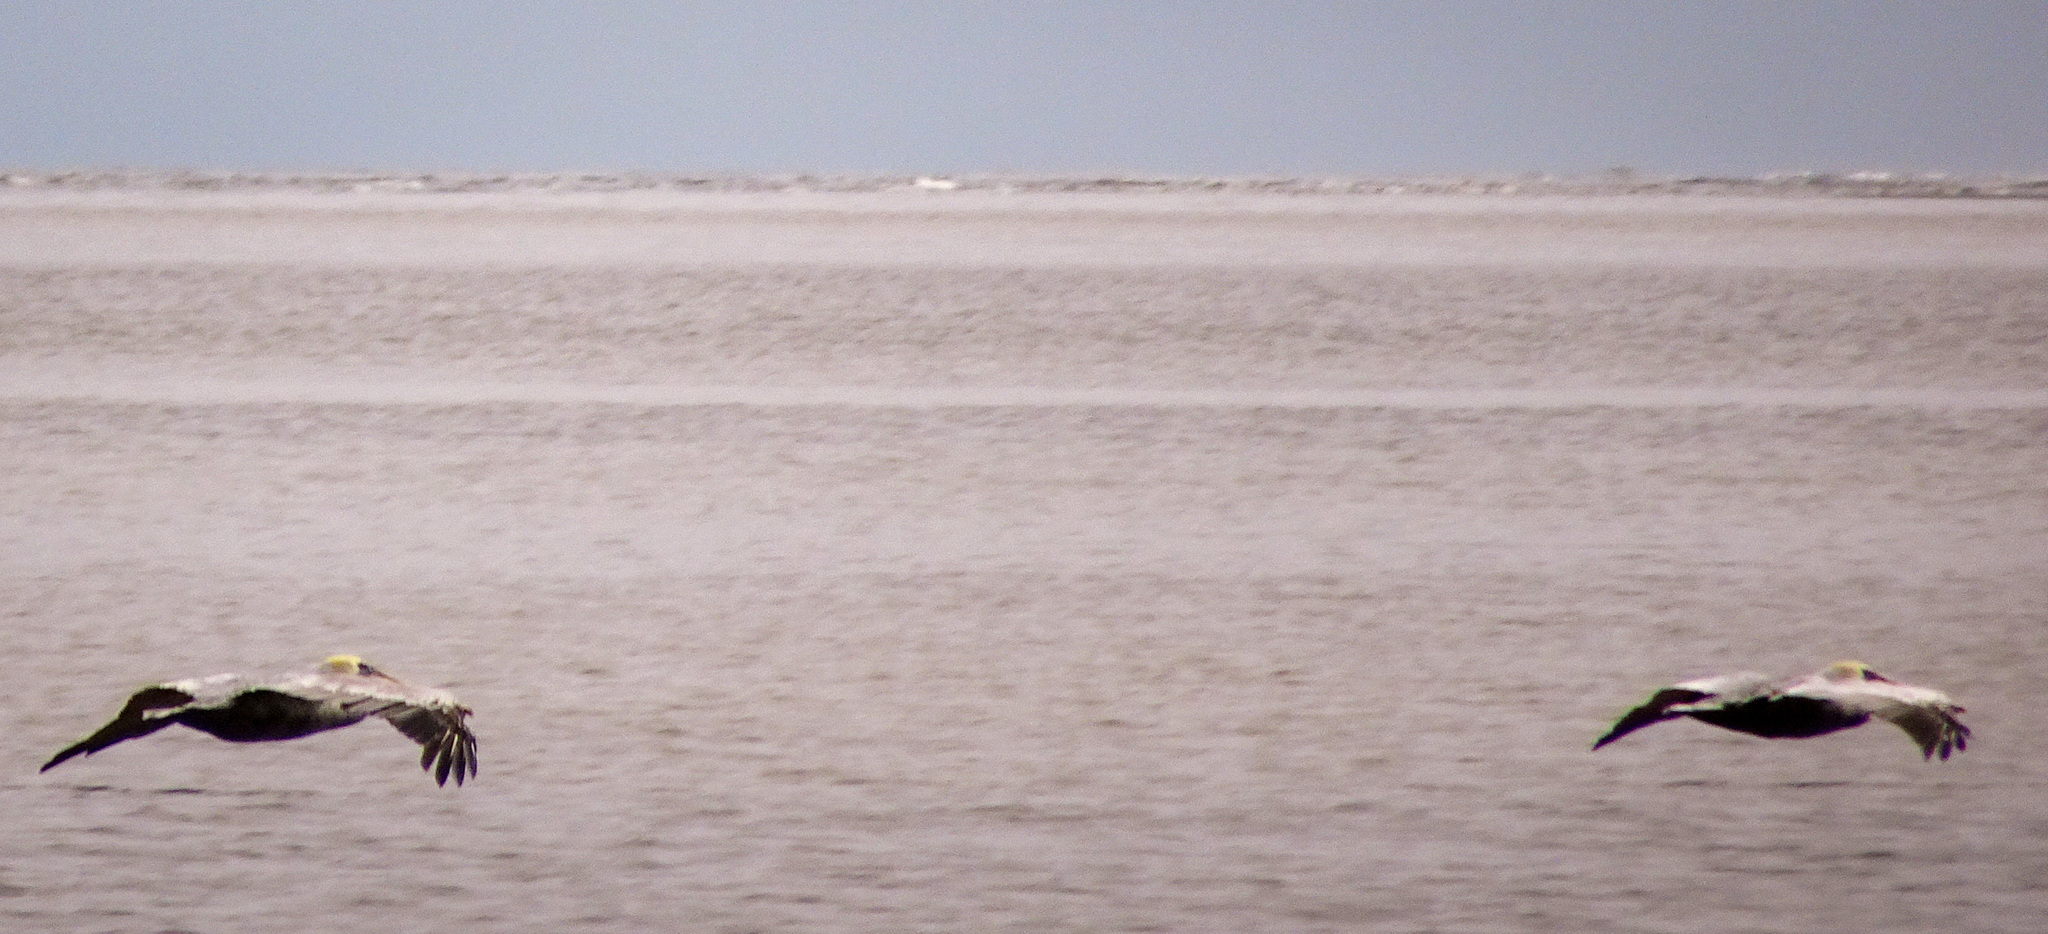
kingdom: Animalia
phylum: Chordata
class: Aves
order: Pelecaniformes
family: Pelecanidae
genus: Pelecanus
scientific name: Pelecanus occidentalis
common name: Brown pelican
